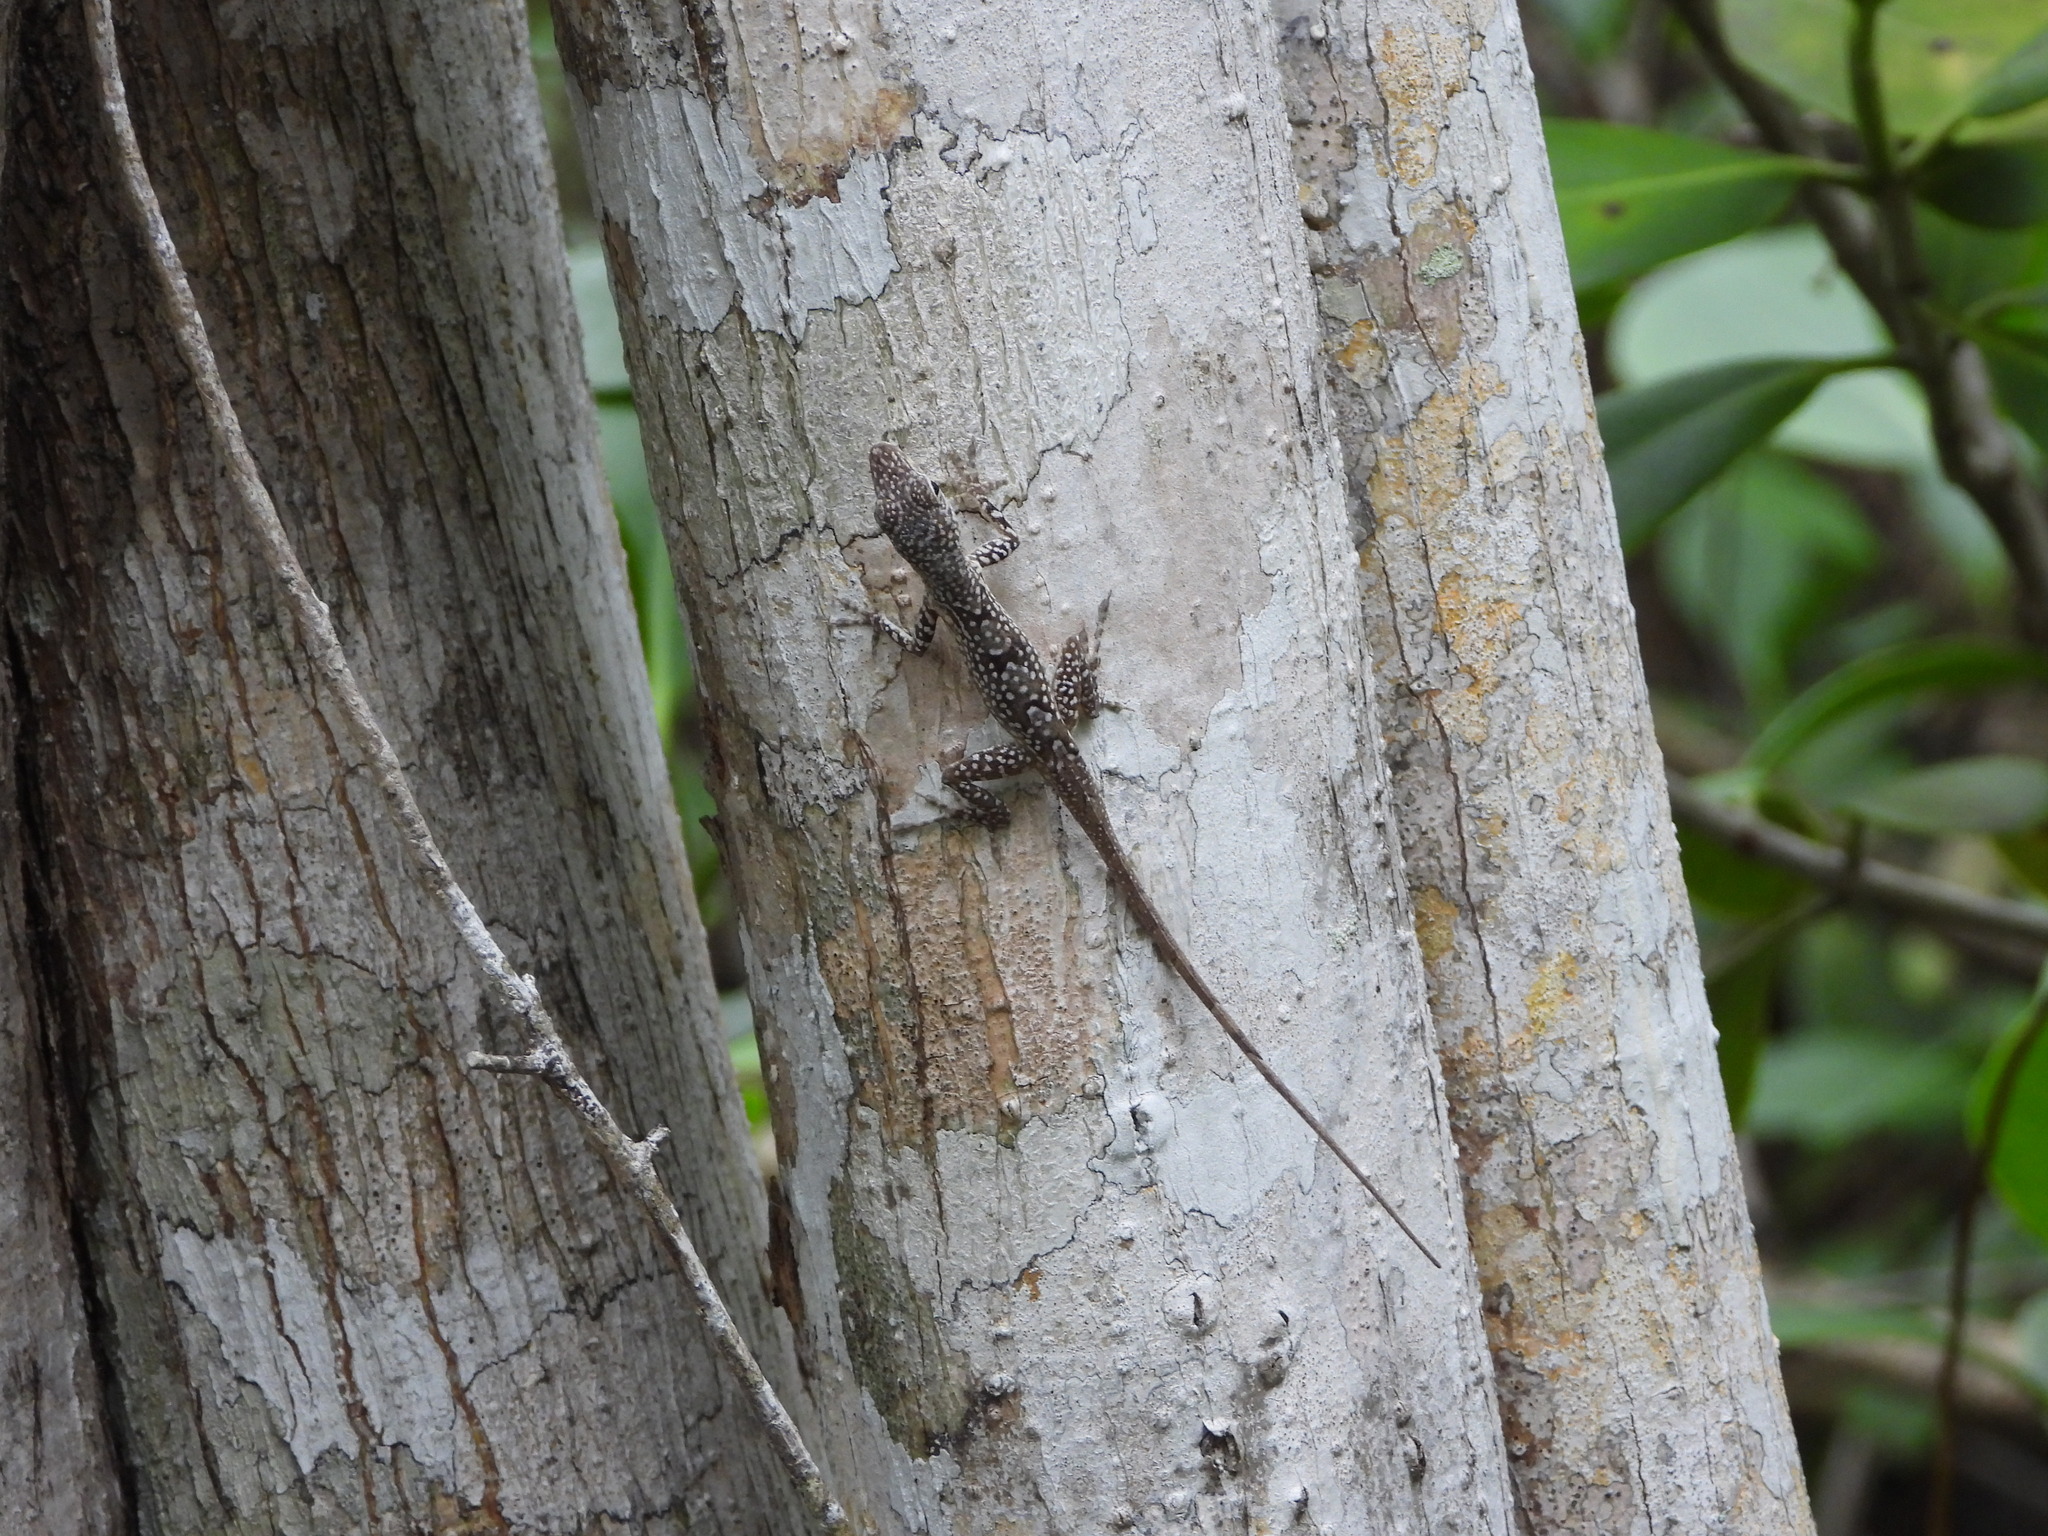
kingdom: Animalia
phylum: Chordata
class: Squamata
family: Dactyloidae
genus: Anolis
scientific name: Anolis conspersus
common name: Grand cayman anole
